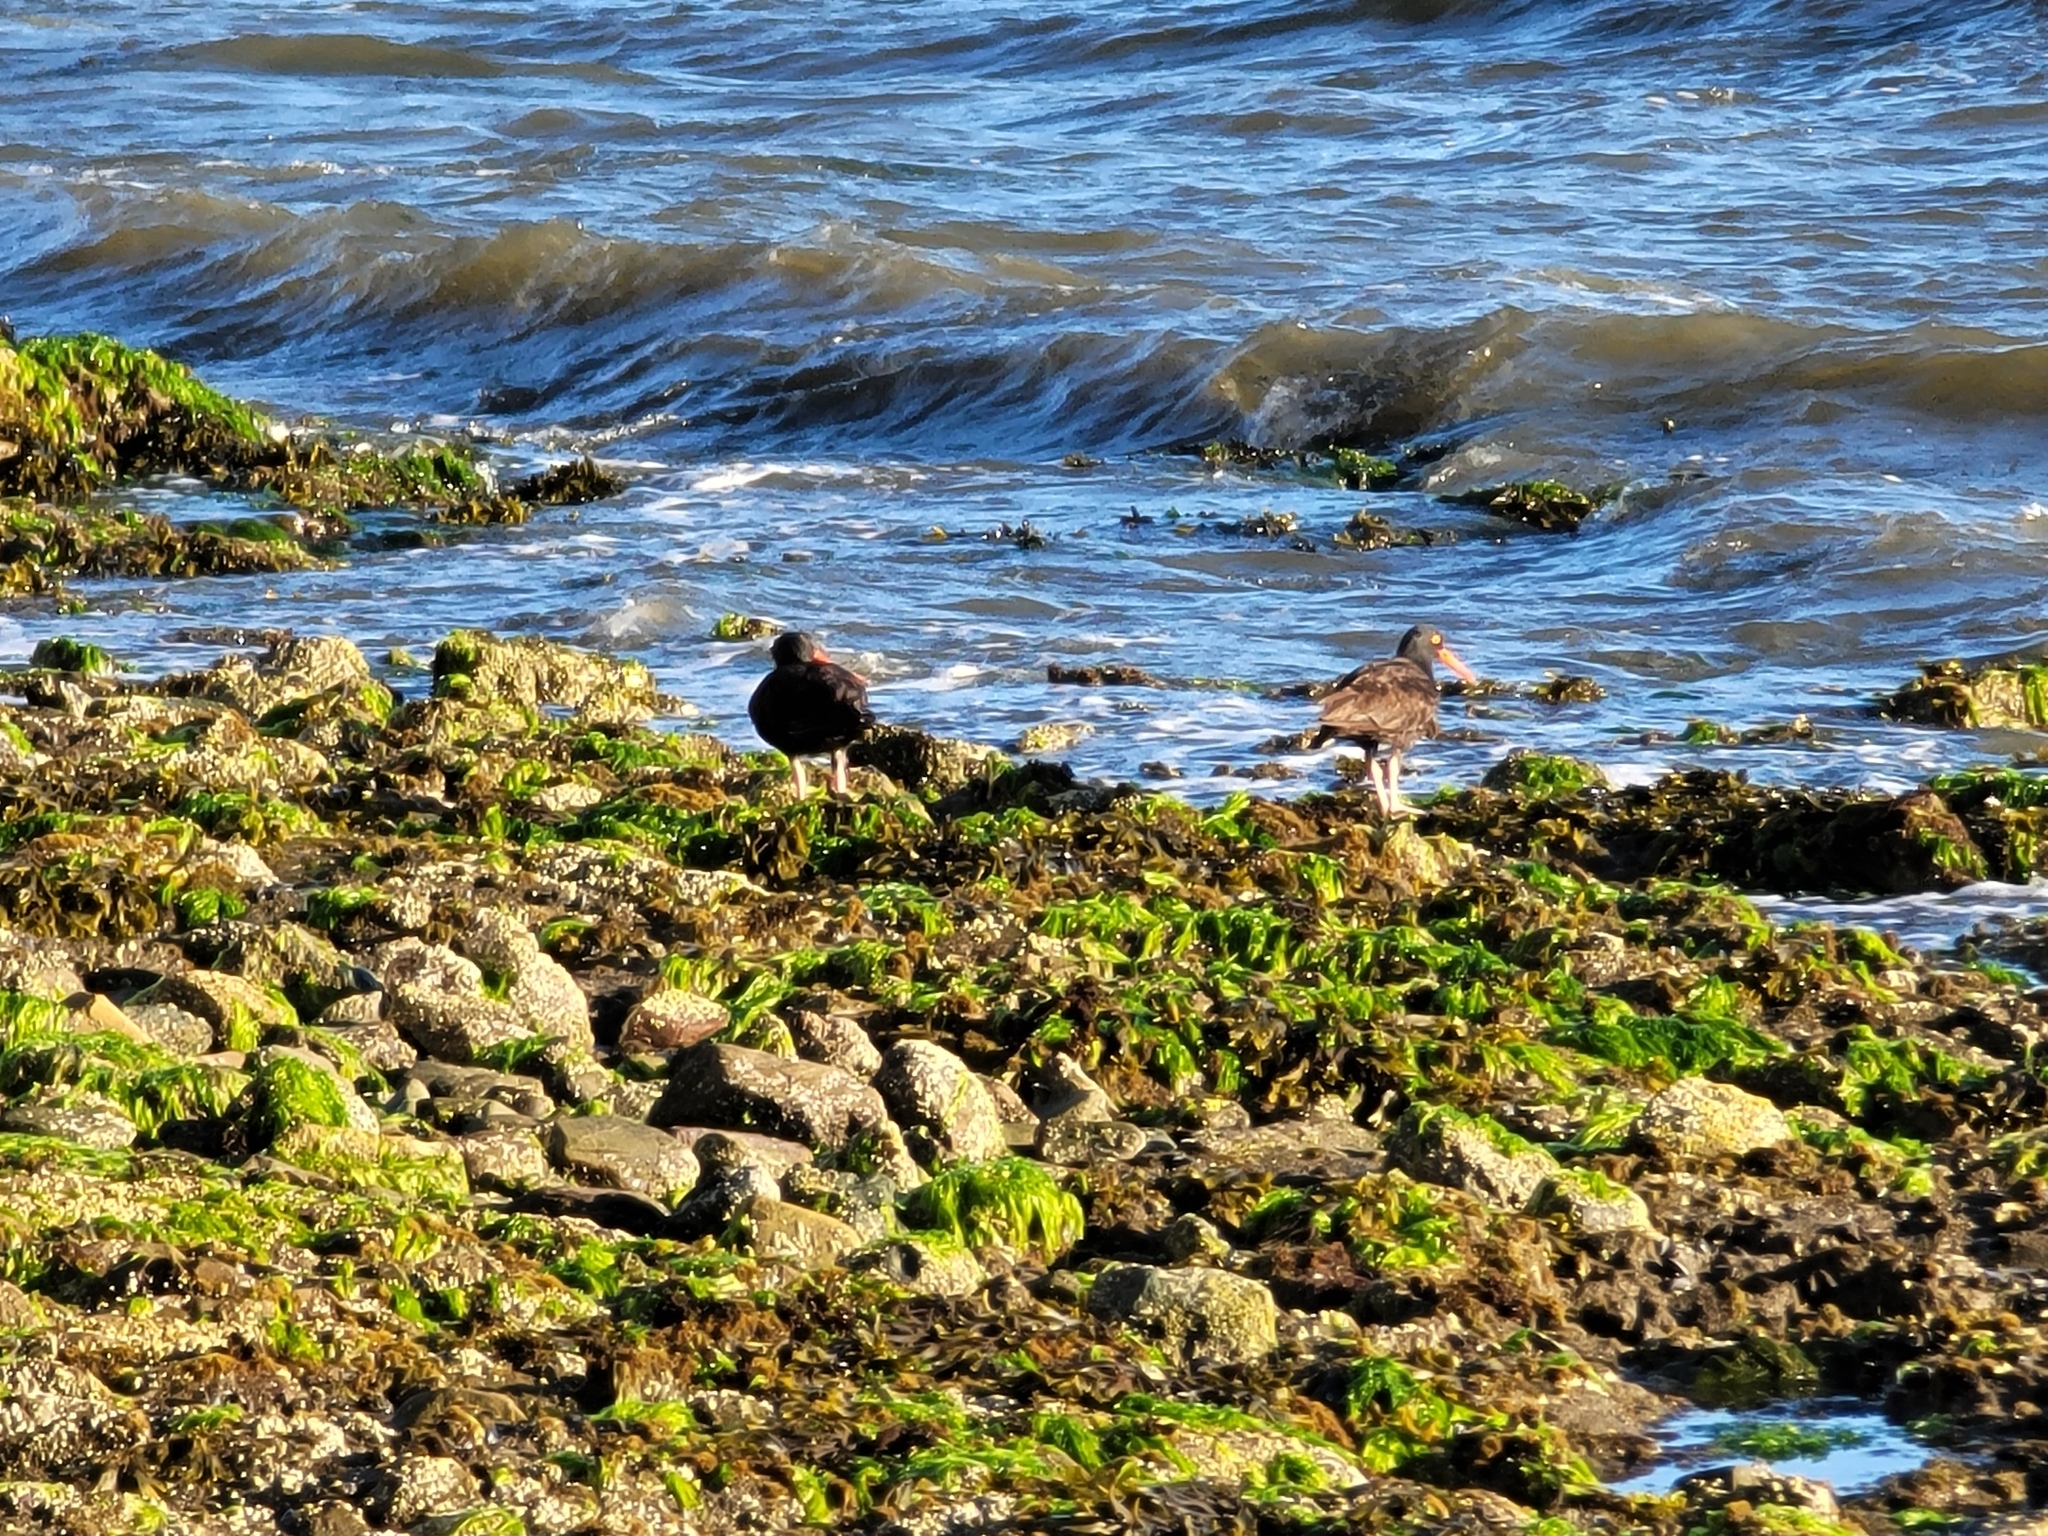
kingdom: Animalia
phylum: Chordata
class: Aves
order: Charadriiformes
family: Haematopodidae
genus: Haematopus
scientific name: Haematopus bachmani
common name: Black oystercatcher
